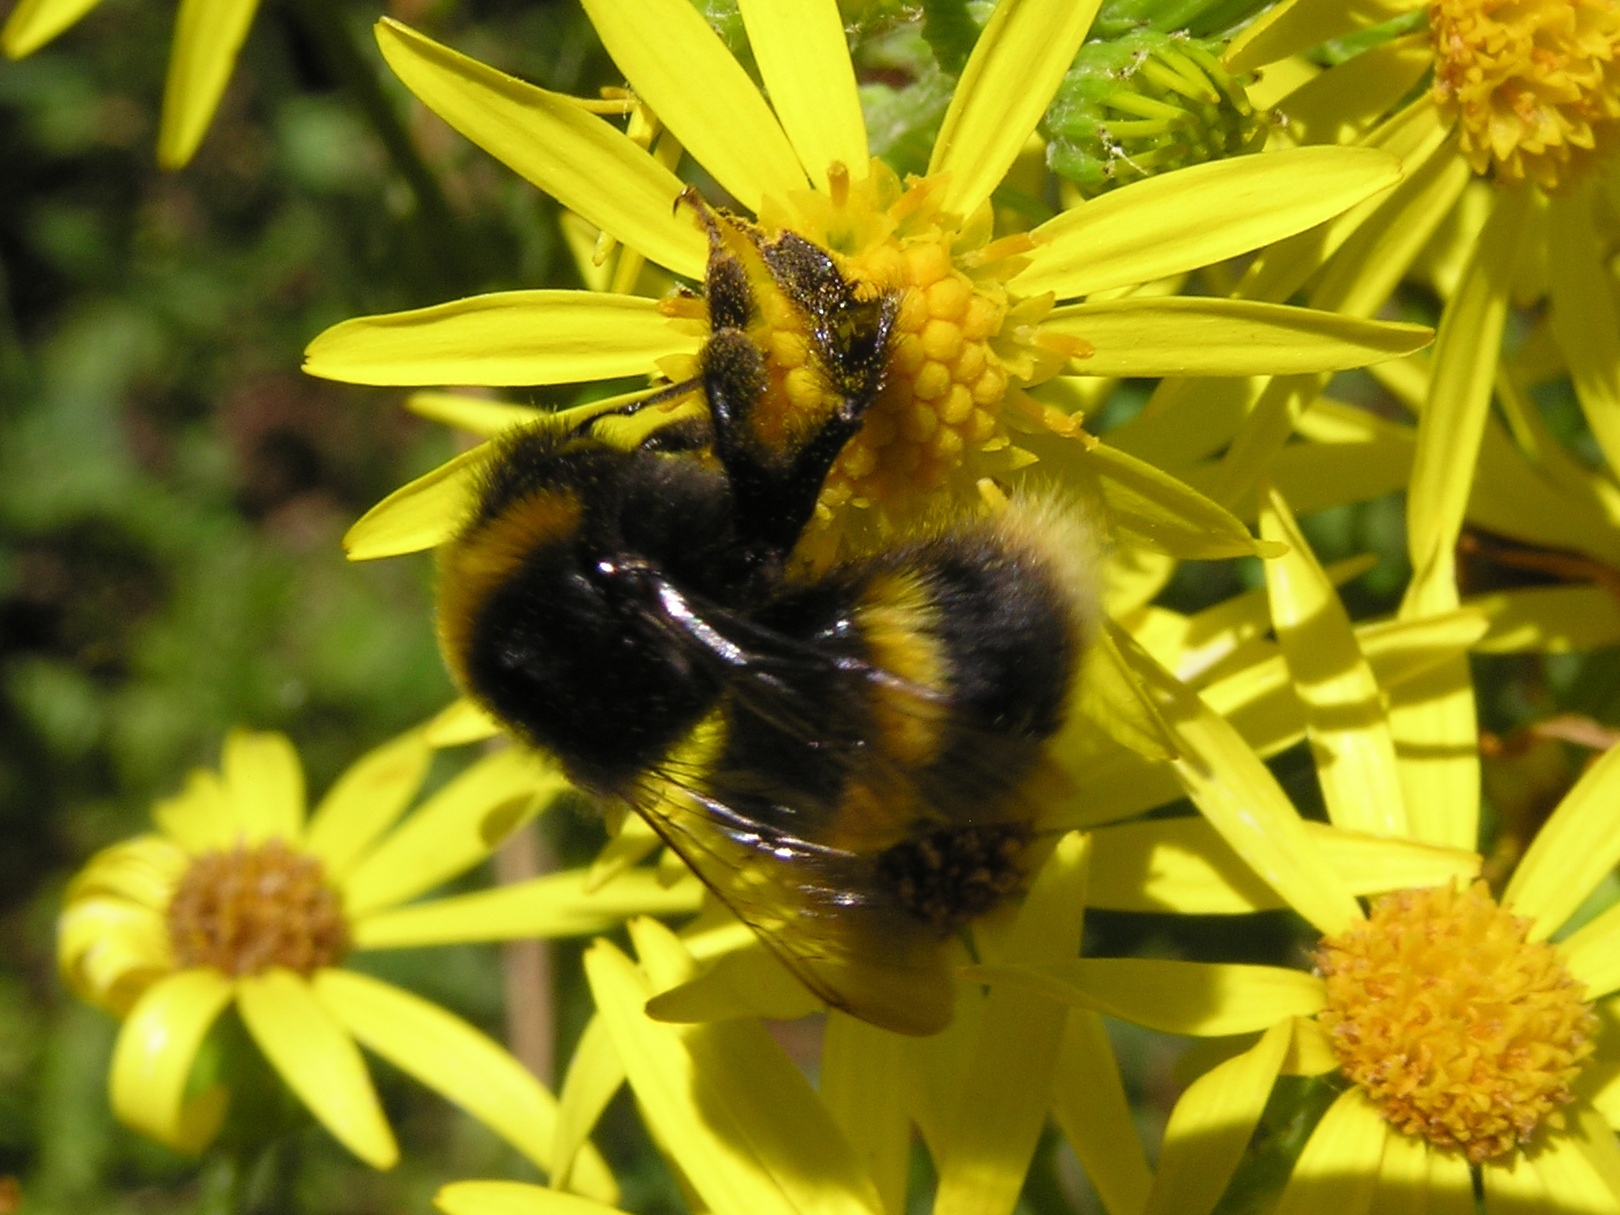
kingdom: Animalia
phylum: Arthropoda
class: Insecta
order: Hymenoptera
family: Apidae
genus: Bombus
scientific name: Bombus terrestris
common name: Buff-tailed bumblebee
